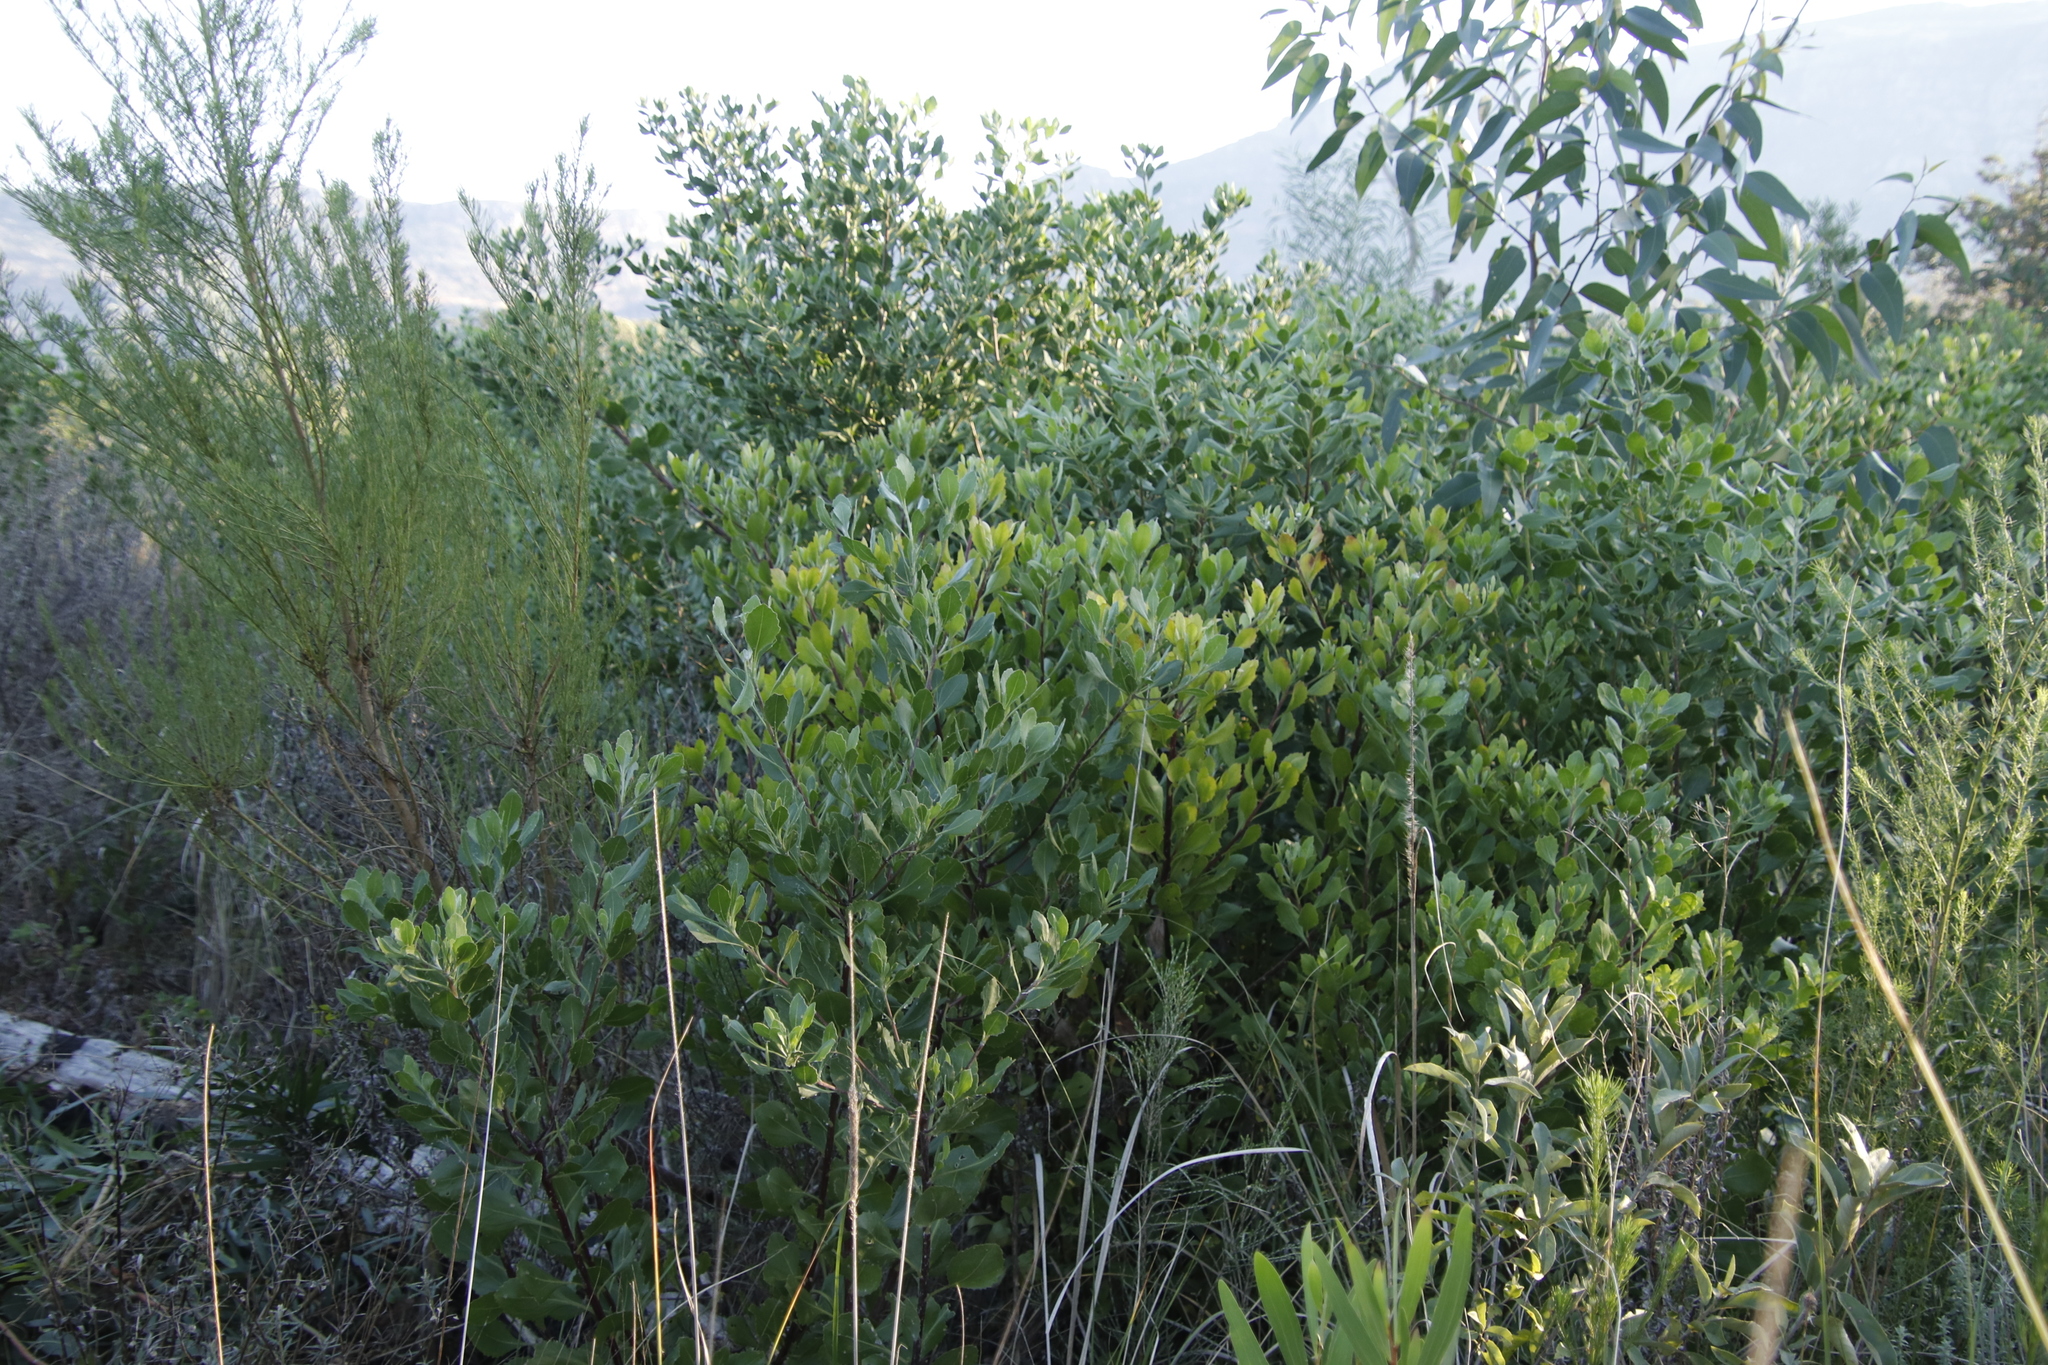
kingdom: Plantae
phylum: Tracheophyta
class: Magnoliopsida
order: Asterales
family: Asteraceae
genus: Osteospermum
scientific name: Osteospermum moniliferum
